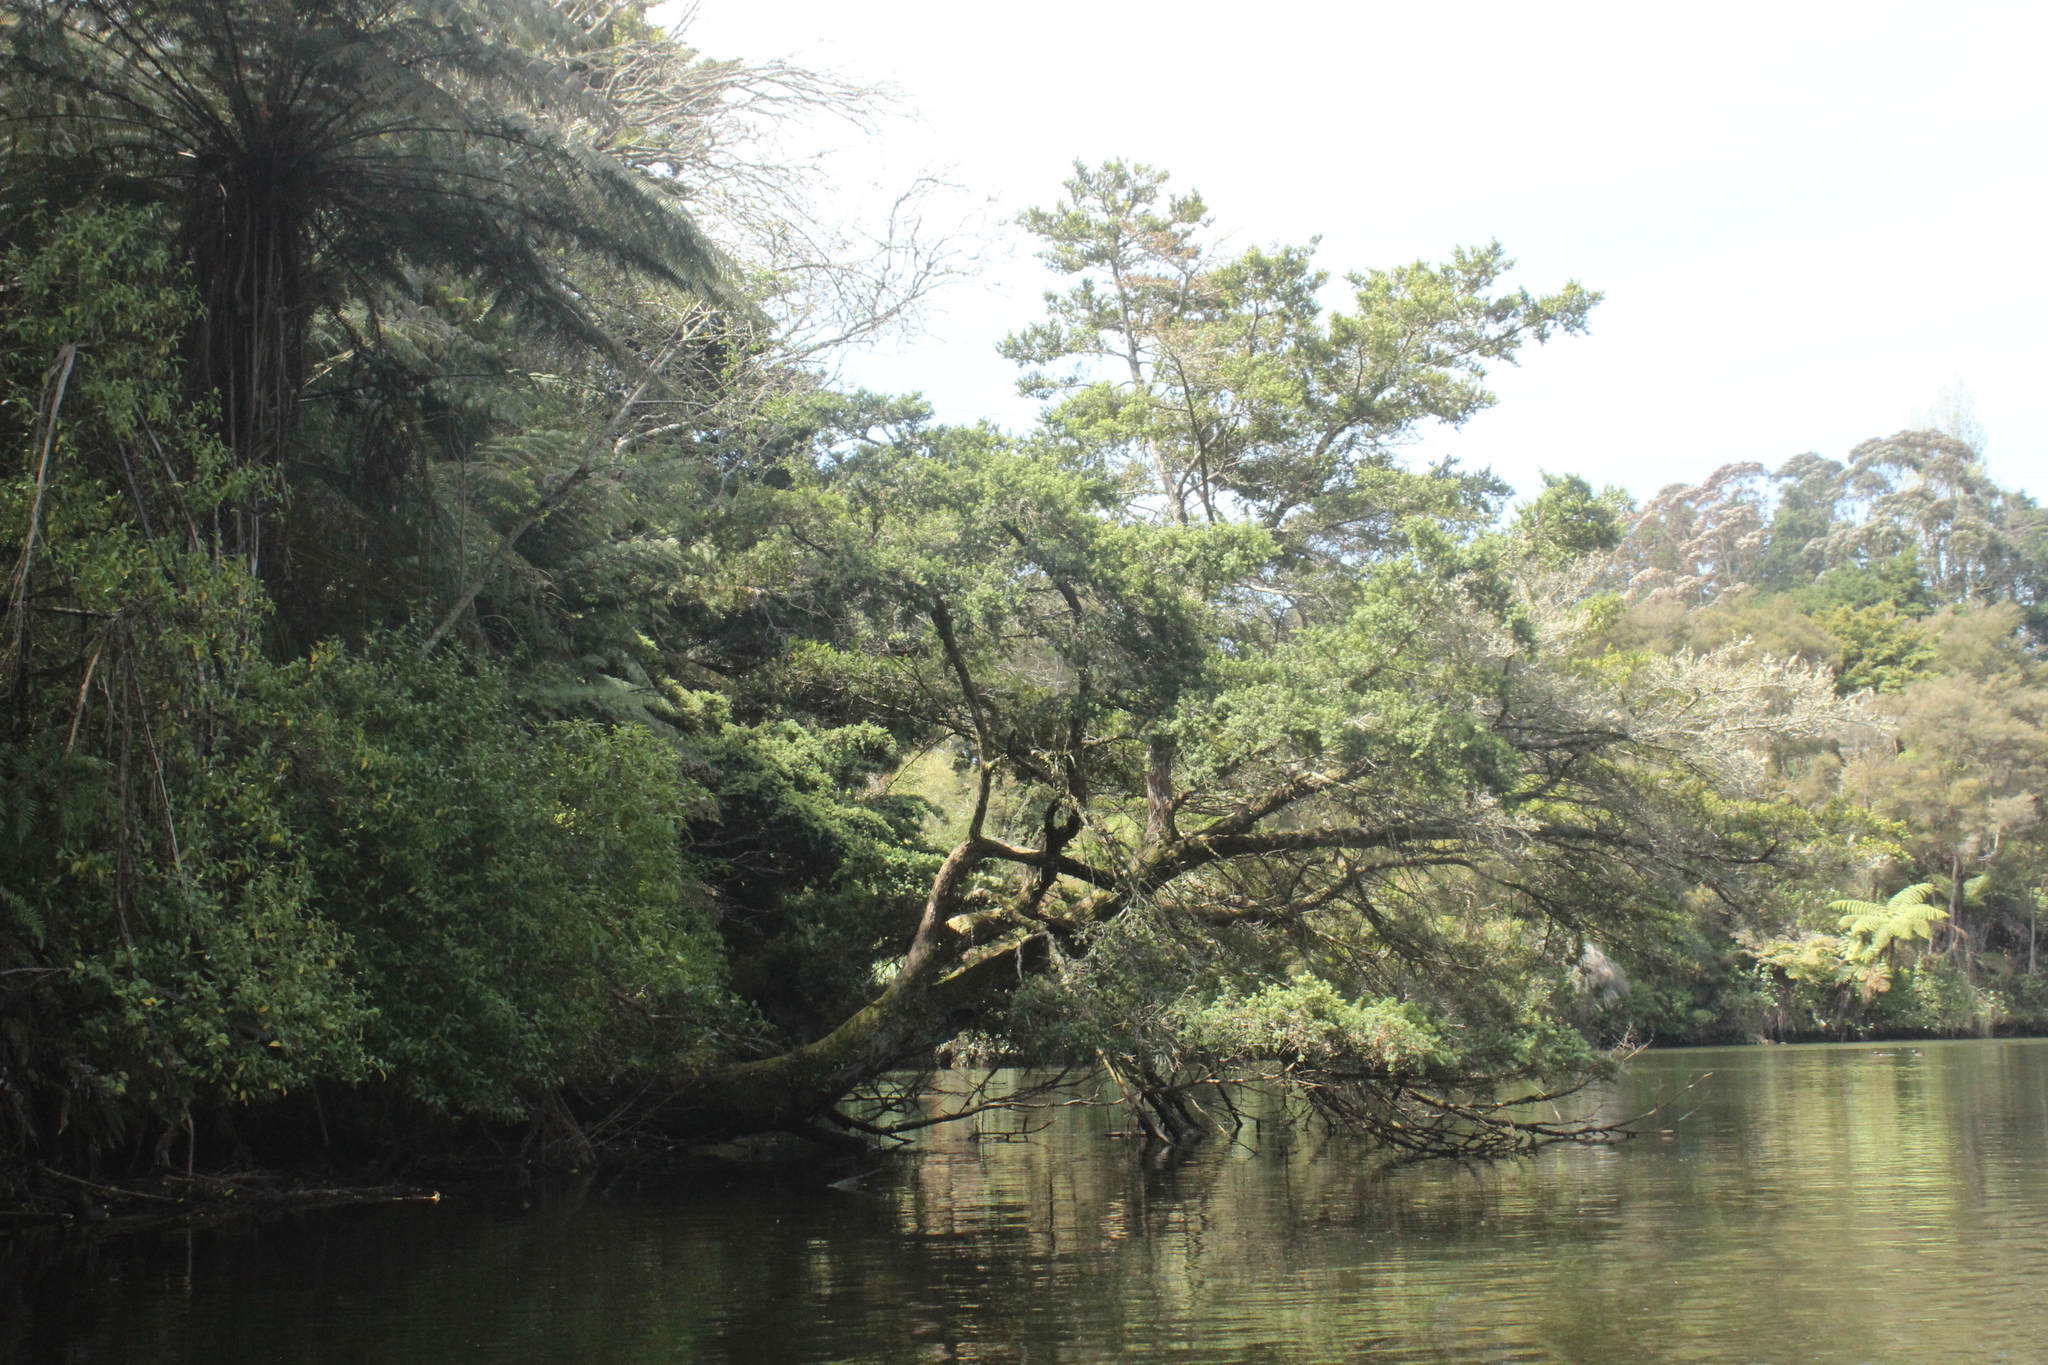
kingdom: Plantae
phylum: Tracheophyta
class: Pinopsida
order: Pinales
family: Podocarpaceae
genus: Podocarpus
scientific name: Podocarpus totara
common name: Totara
